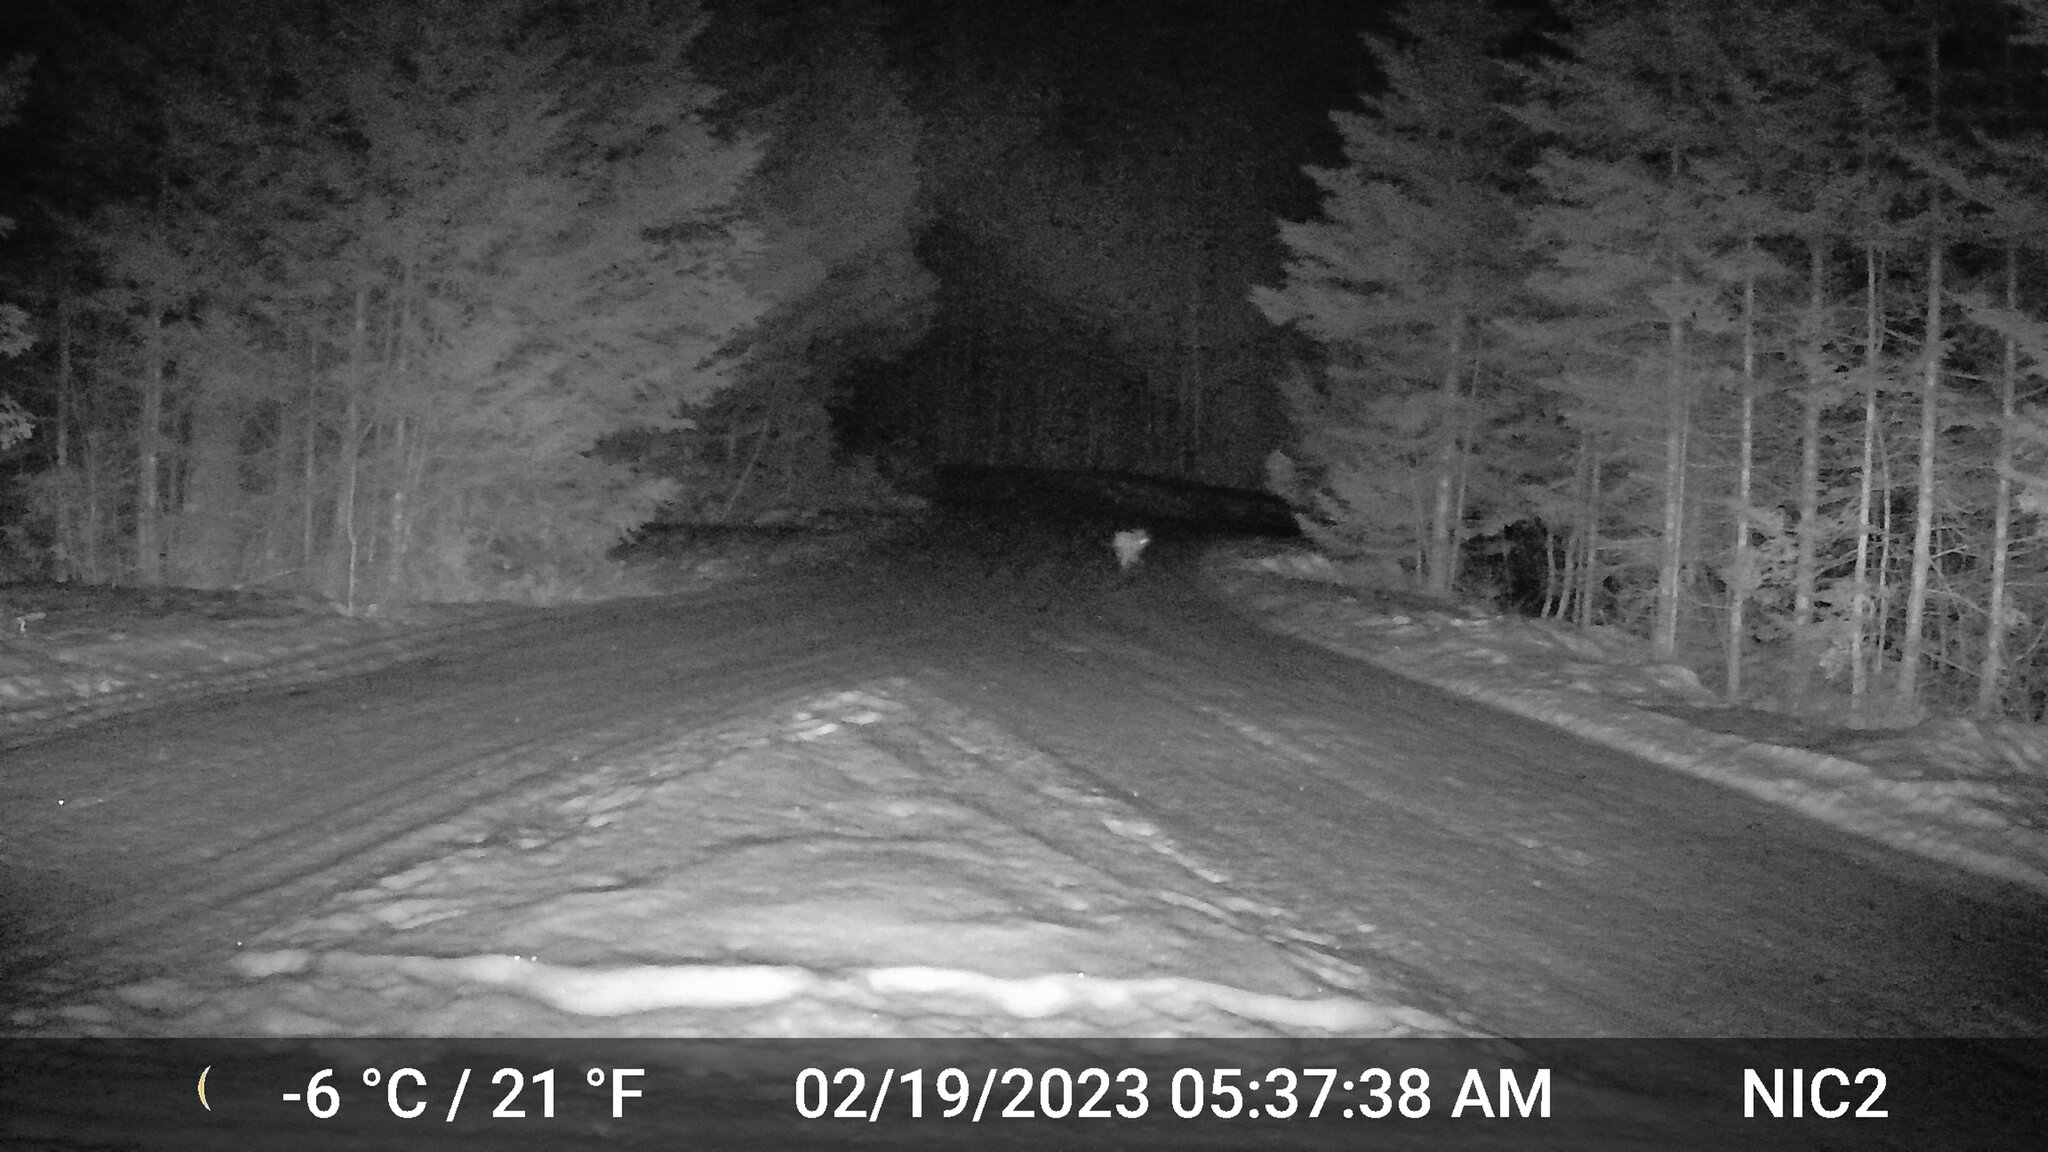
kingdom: Animalia
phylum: Chordata
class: Mammalia
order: Lagomorpha
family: Leporidae
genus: Lepus
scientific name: Lepus americanus
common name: Snowshoe hare
